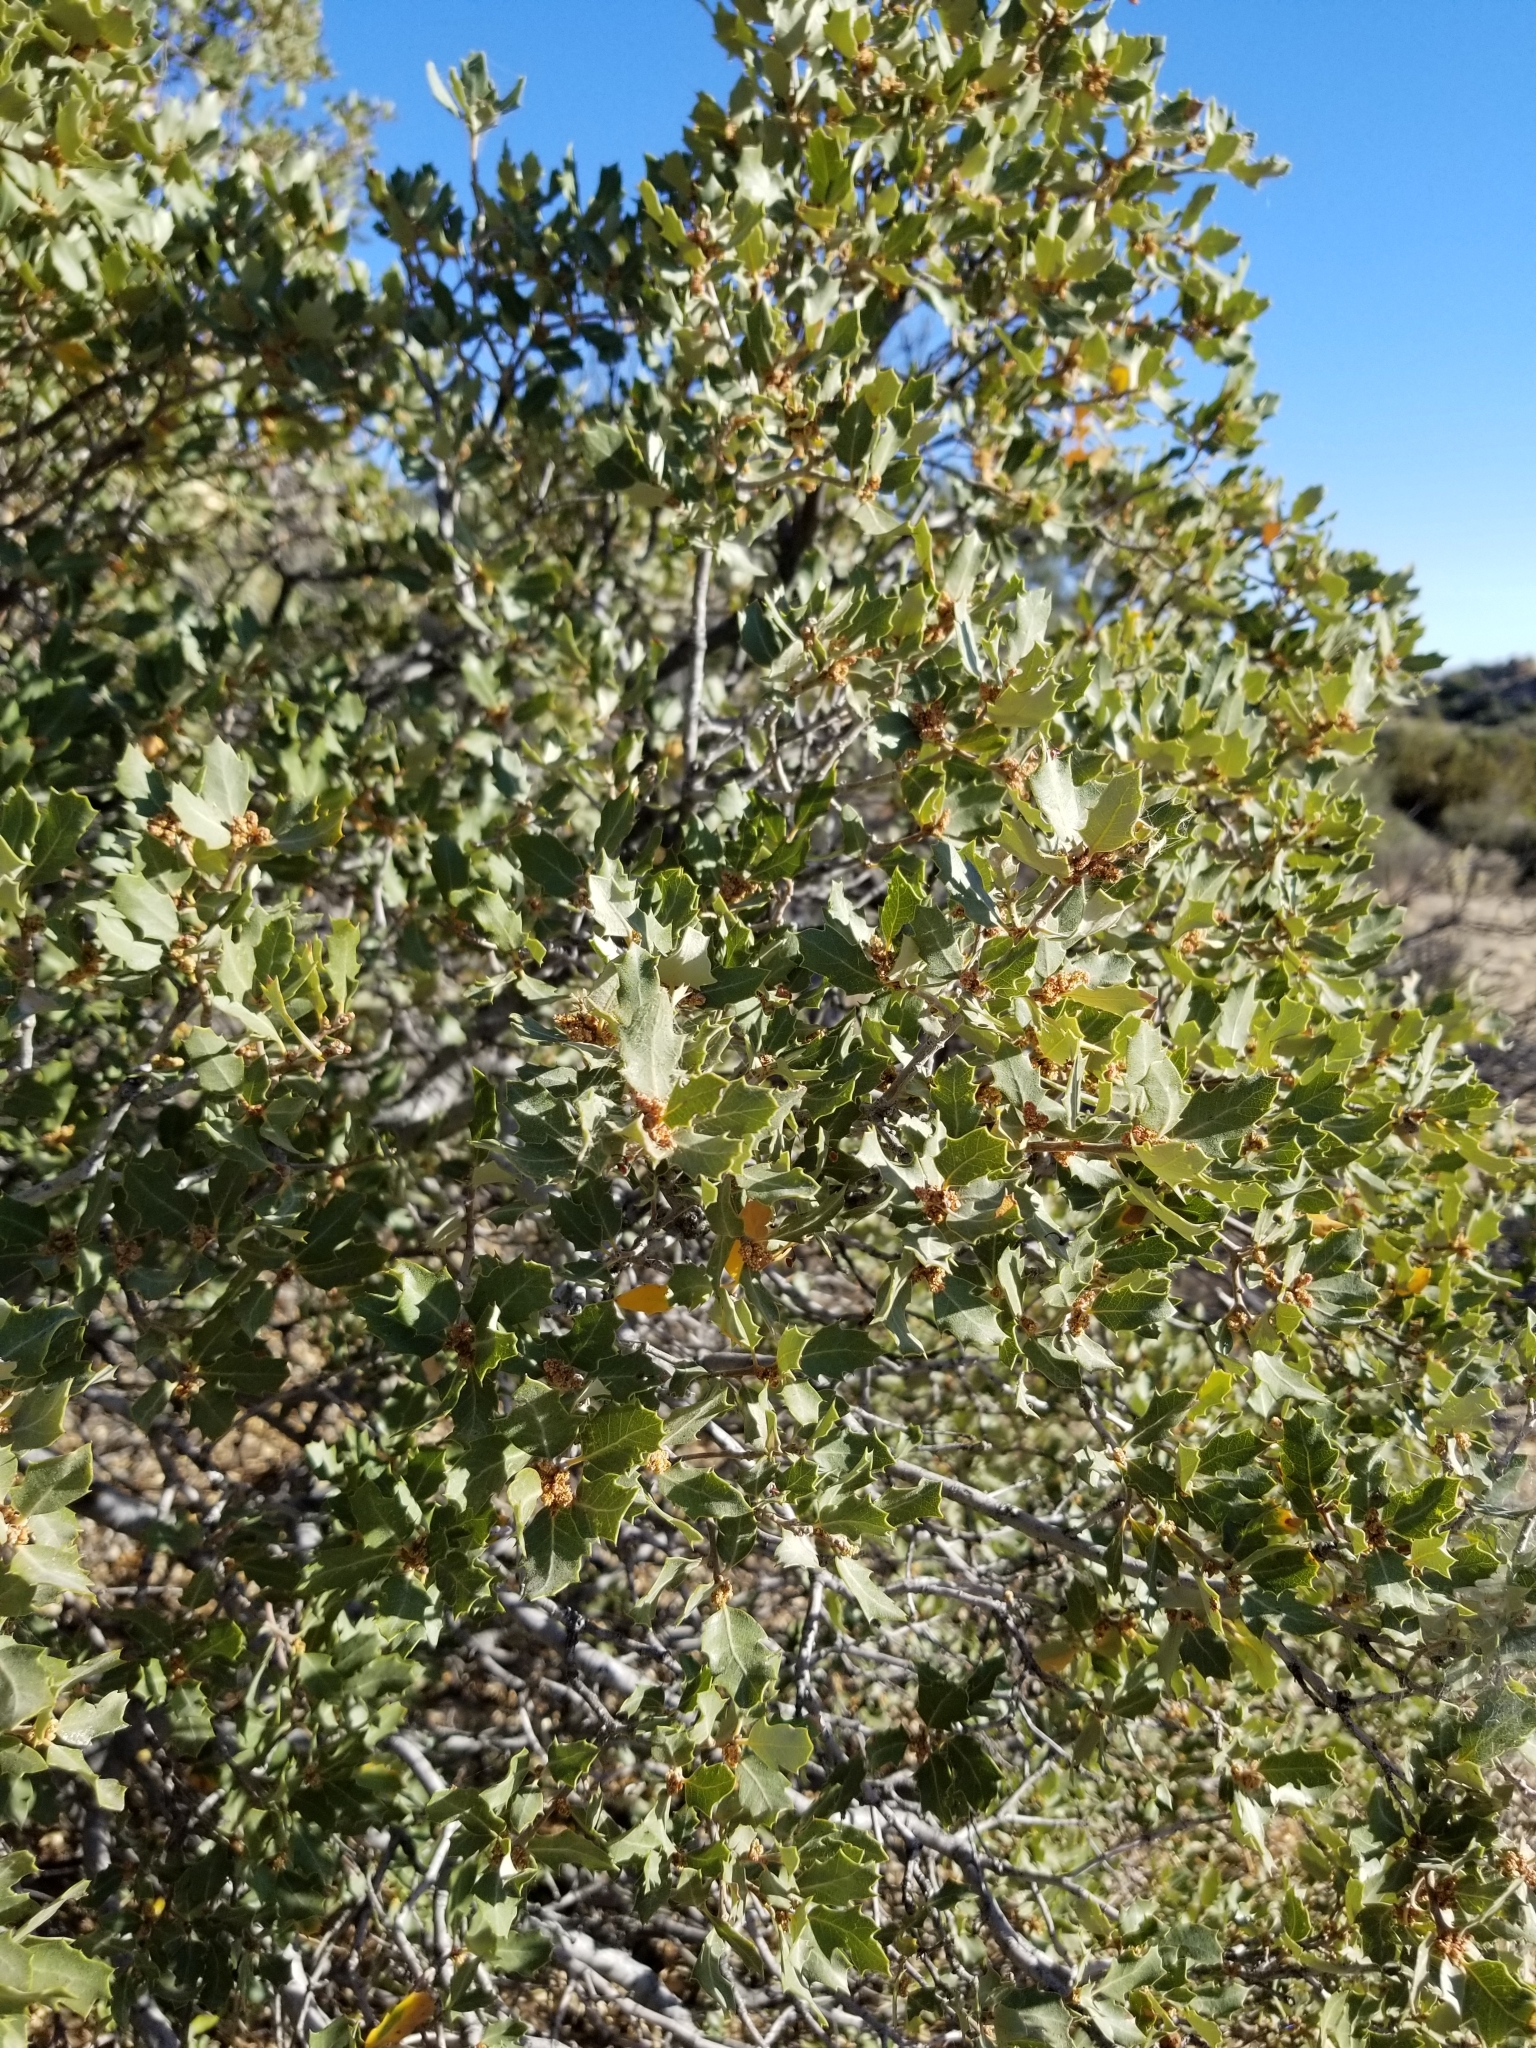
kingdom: Plantae
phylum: Tracheophyta
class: Magnoliopsida
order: Fagales
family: Fagaceae
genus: Quercus
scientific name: Quercus cornelius-mulleri
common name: Muller oak
